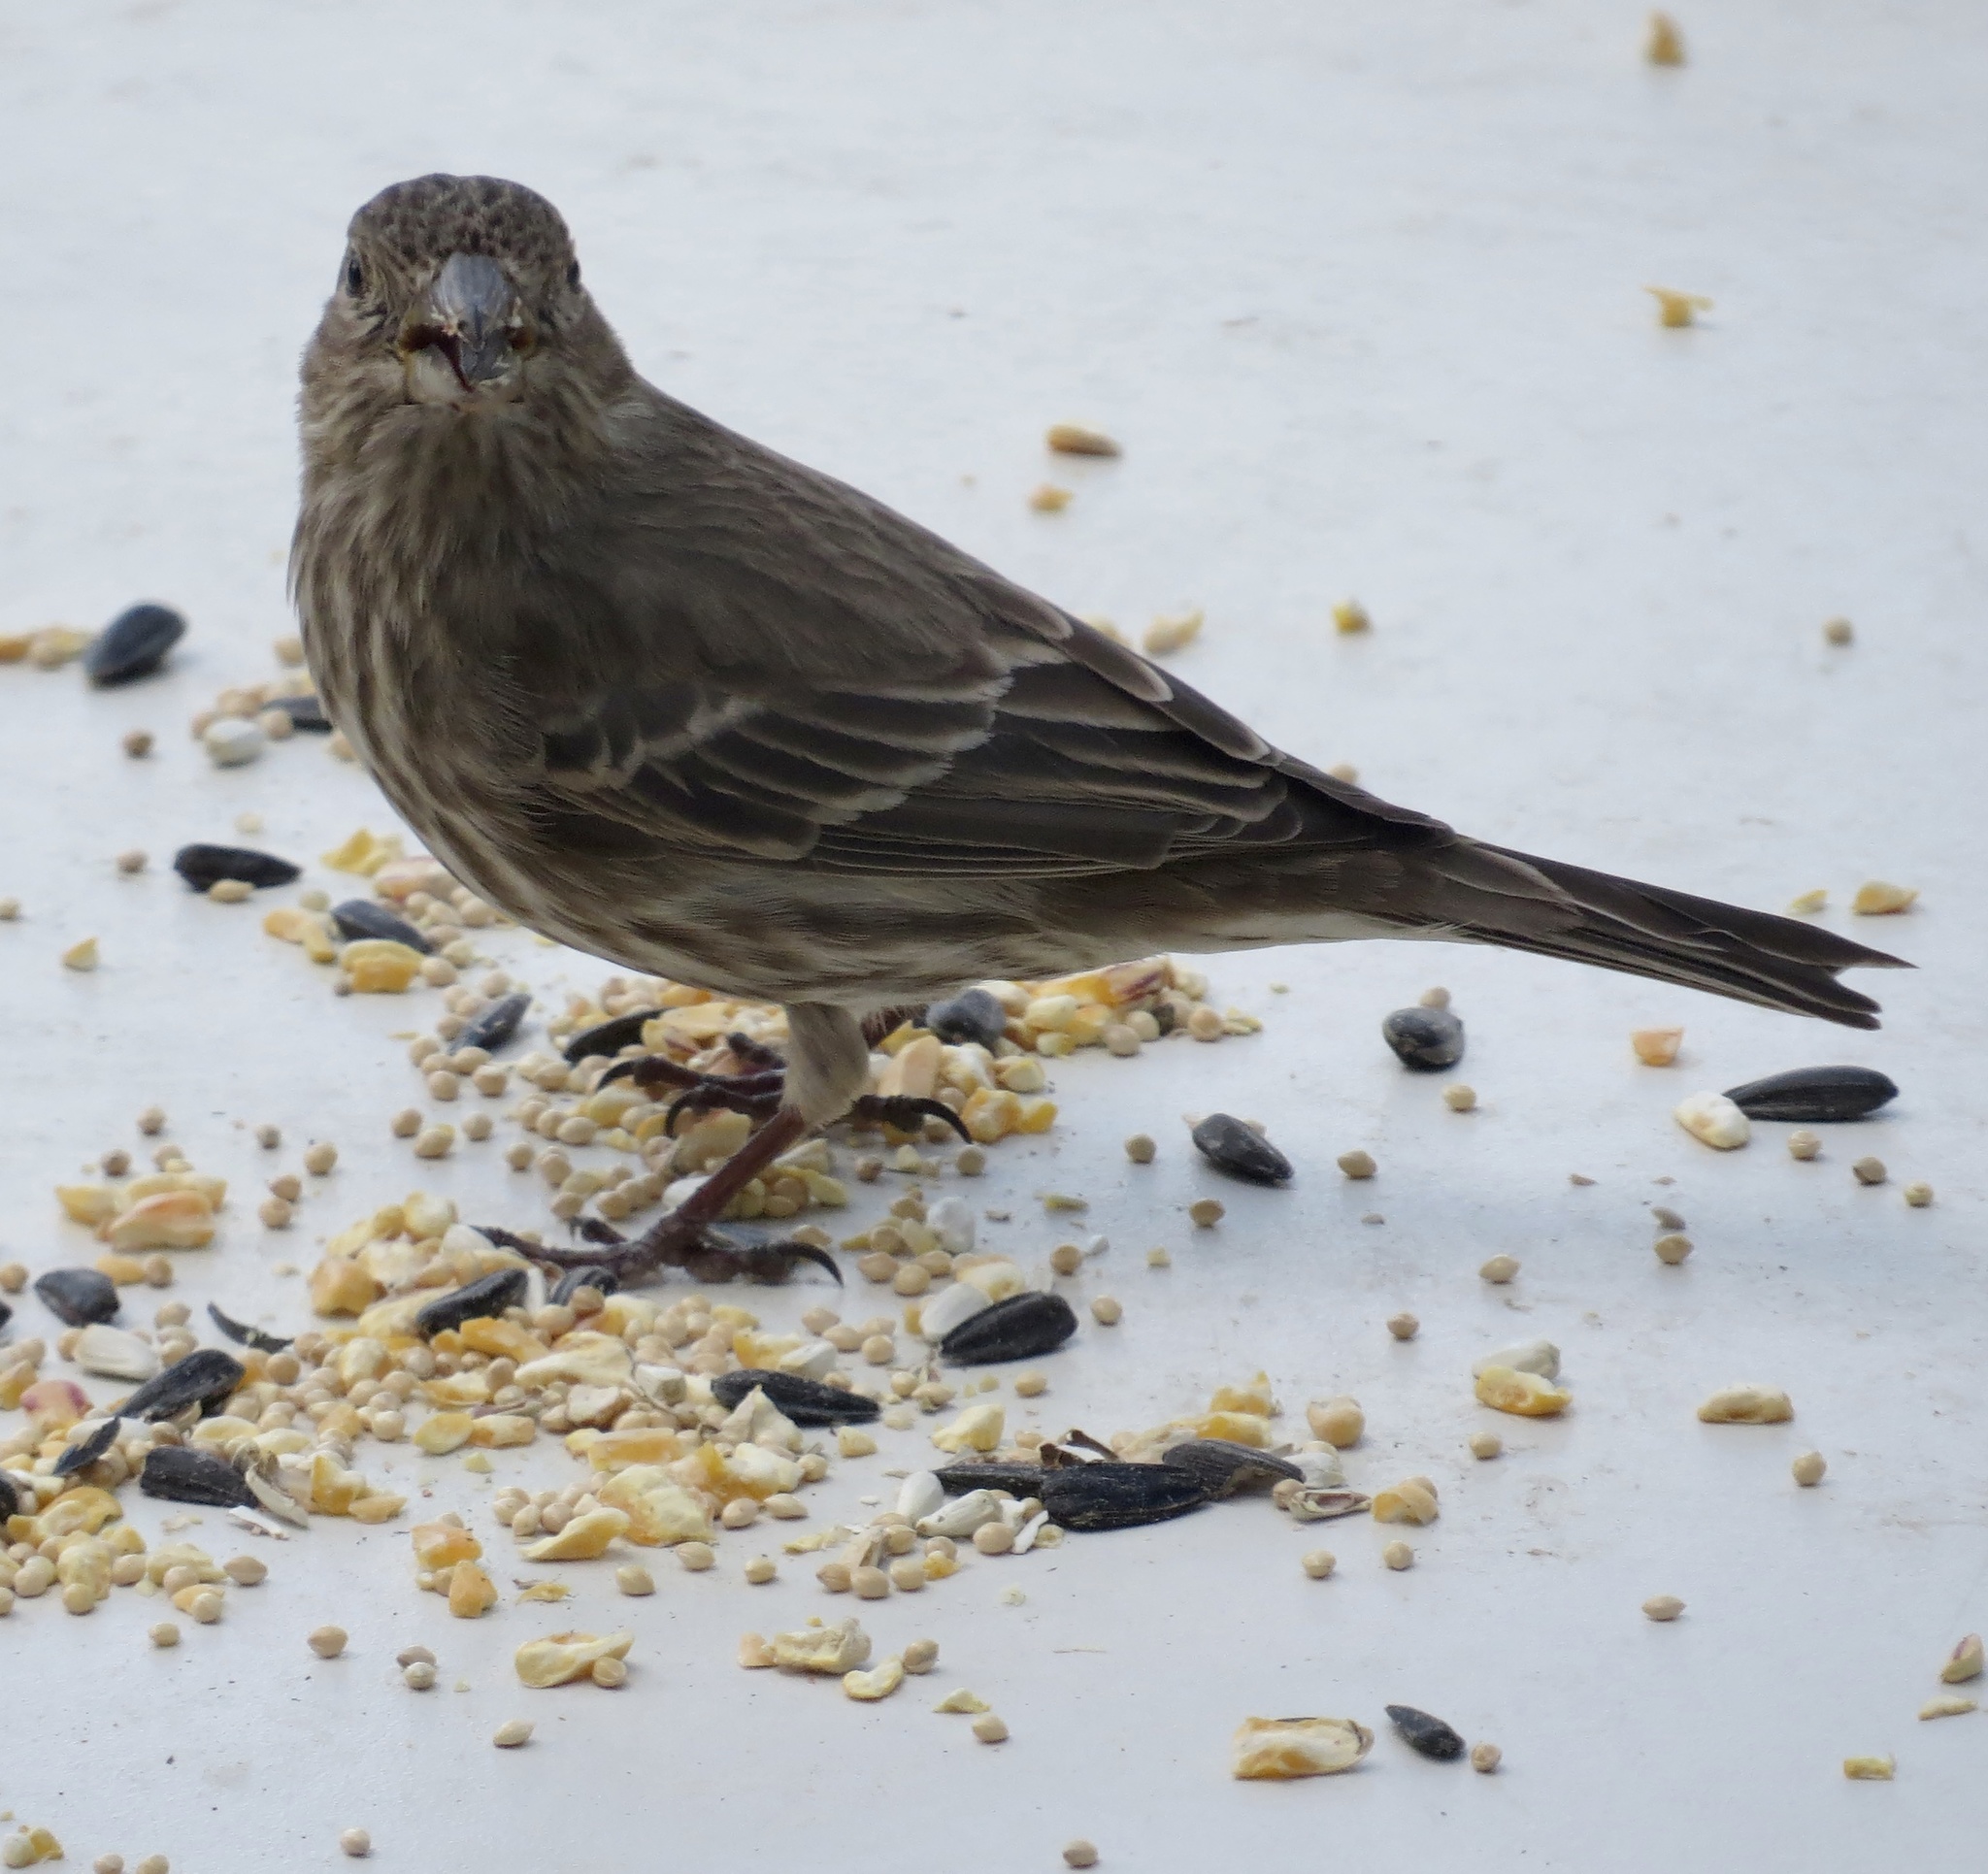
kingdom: Animalia
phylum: Chordata
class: Aves
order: Passeriformes
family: Fringillidae
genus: Haemorhous
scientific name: Haemorhous mexicanus
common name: House finch
